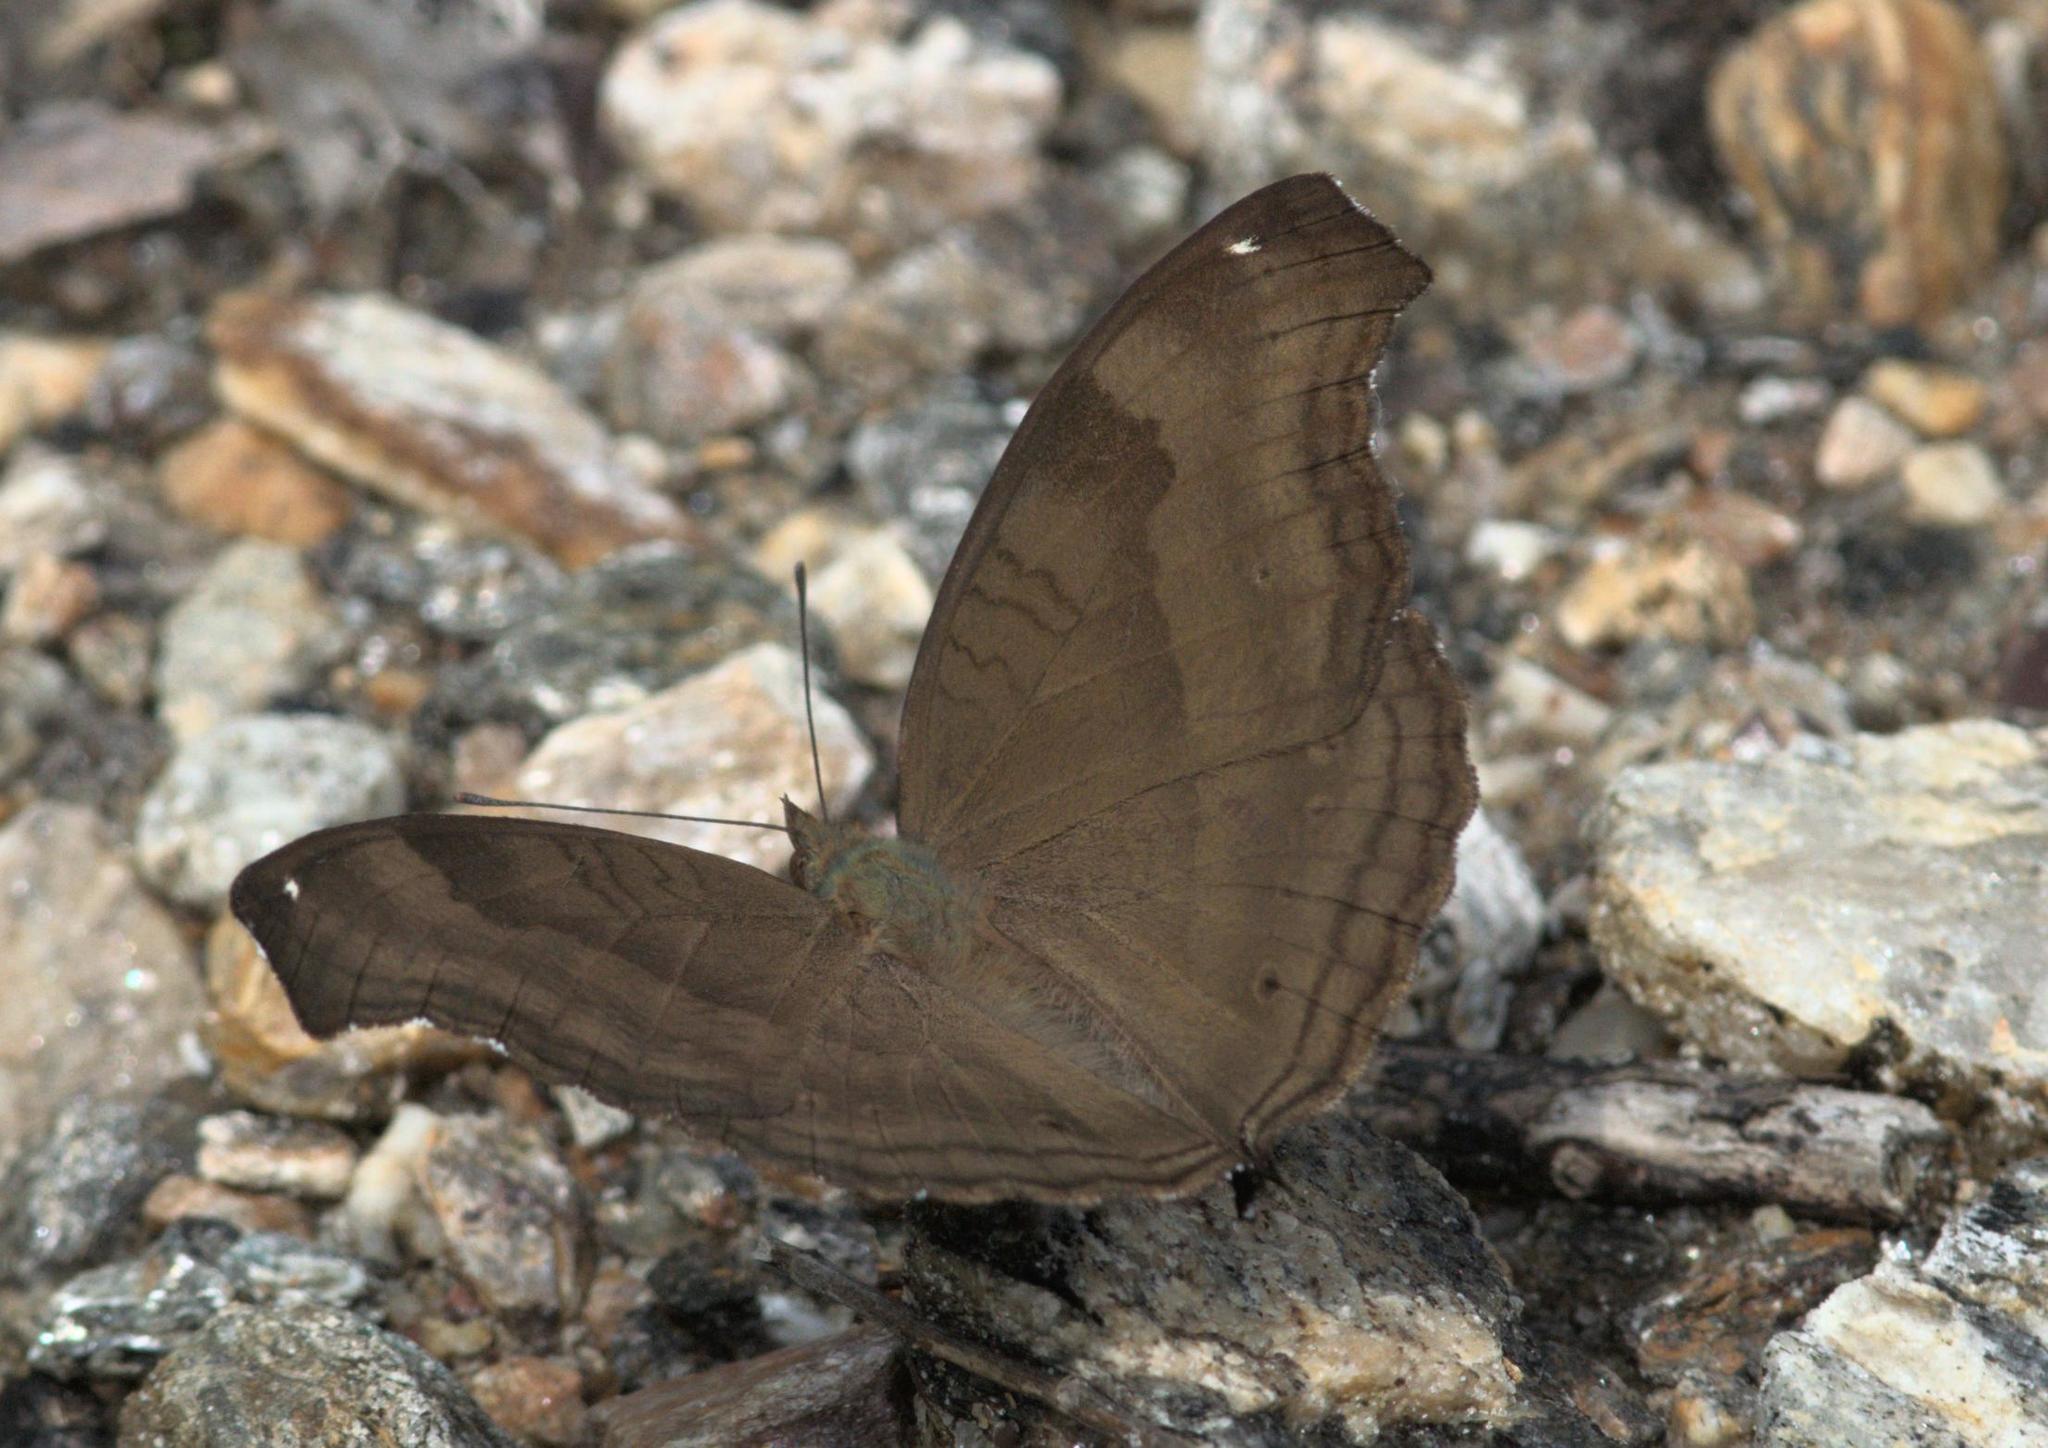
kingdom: Animalia
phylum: Arthropoda
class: Insecta
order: Lepidoptera
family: Nymphalidae
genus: Junonia
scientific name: Junonia iphita
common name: Chocolate pansy
